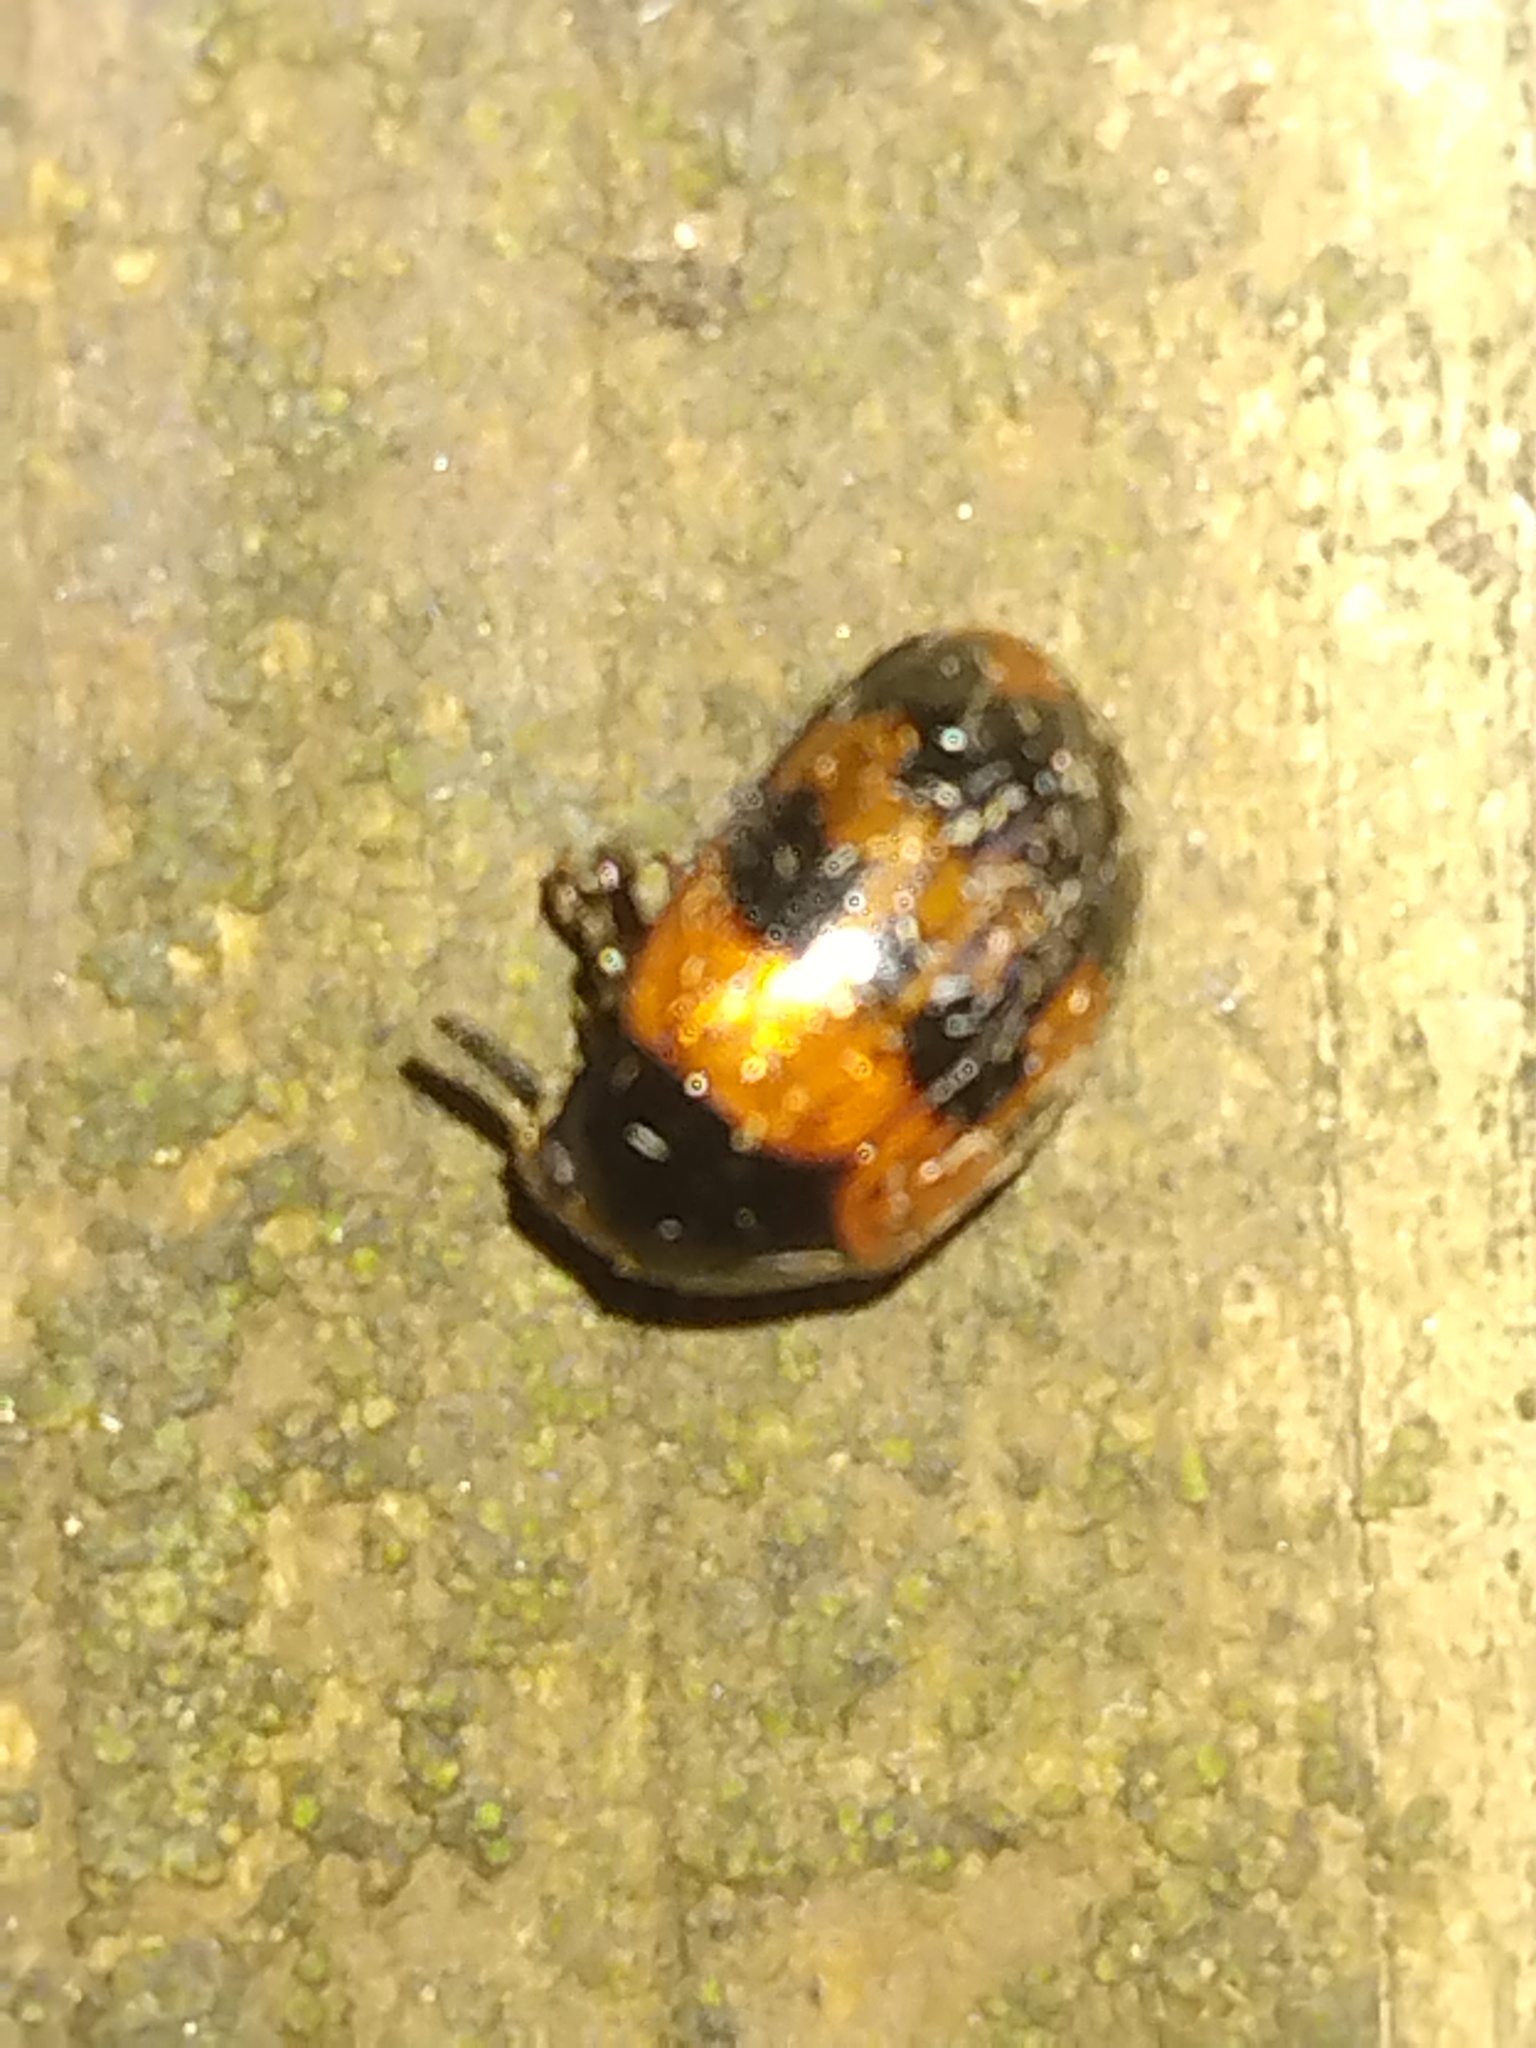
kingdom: Animalia
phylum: Arthropoda
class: Insecta
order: Coleoptera
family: Tenebrionidae
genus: Diaperis
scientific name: Diaperis nigronotata
